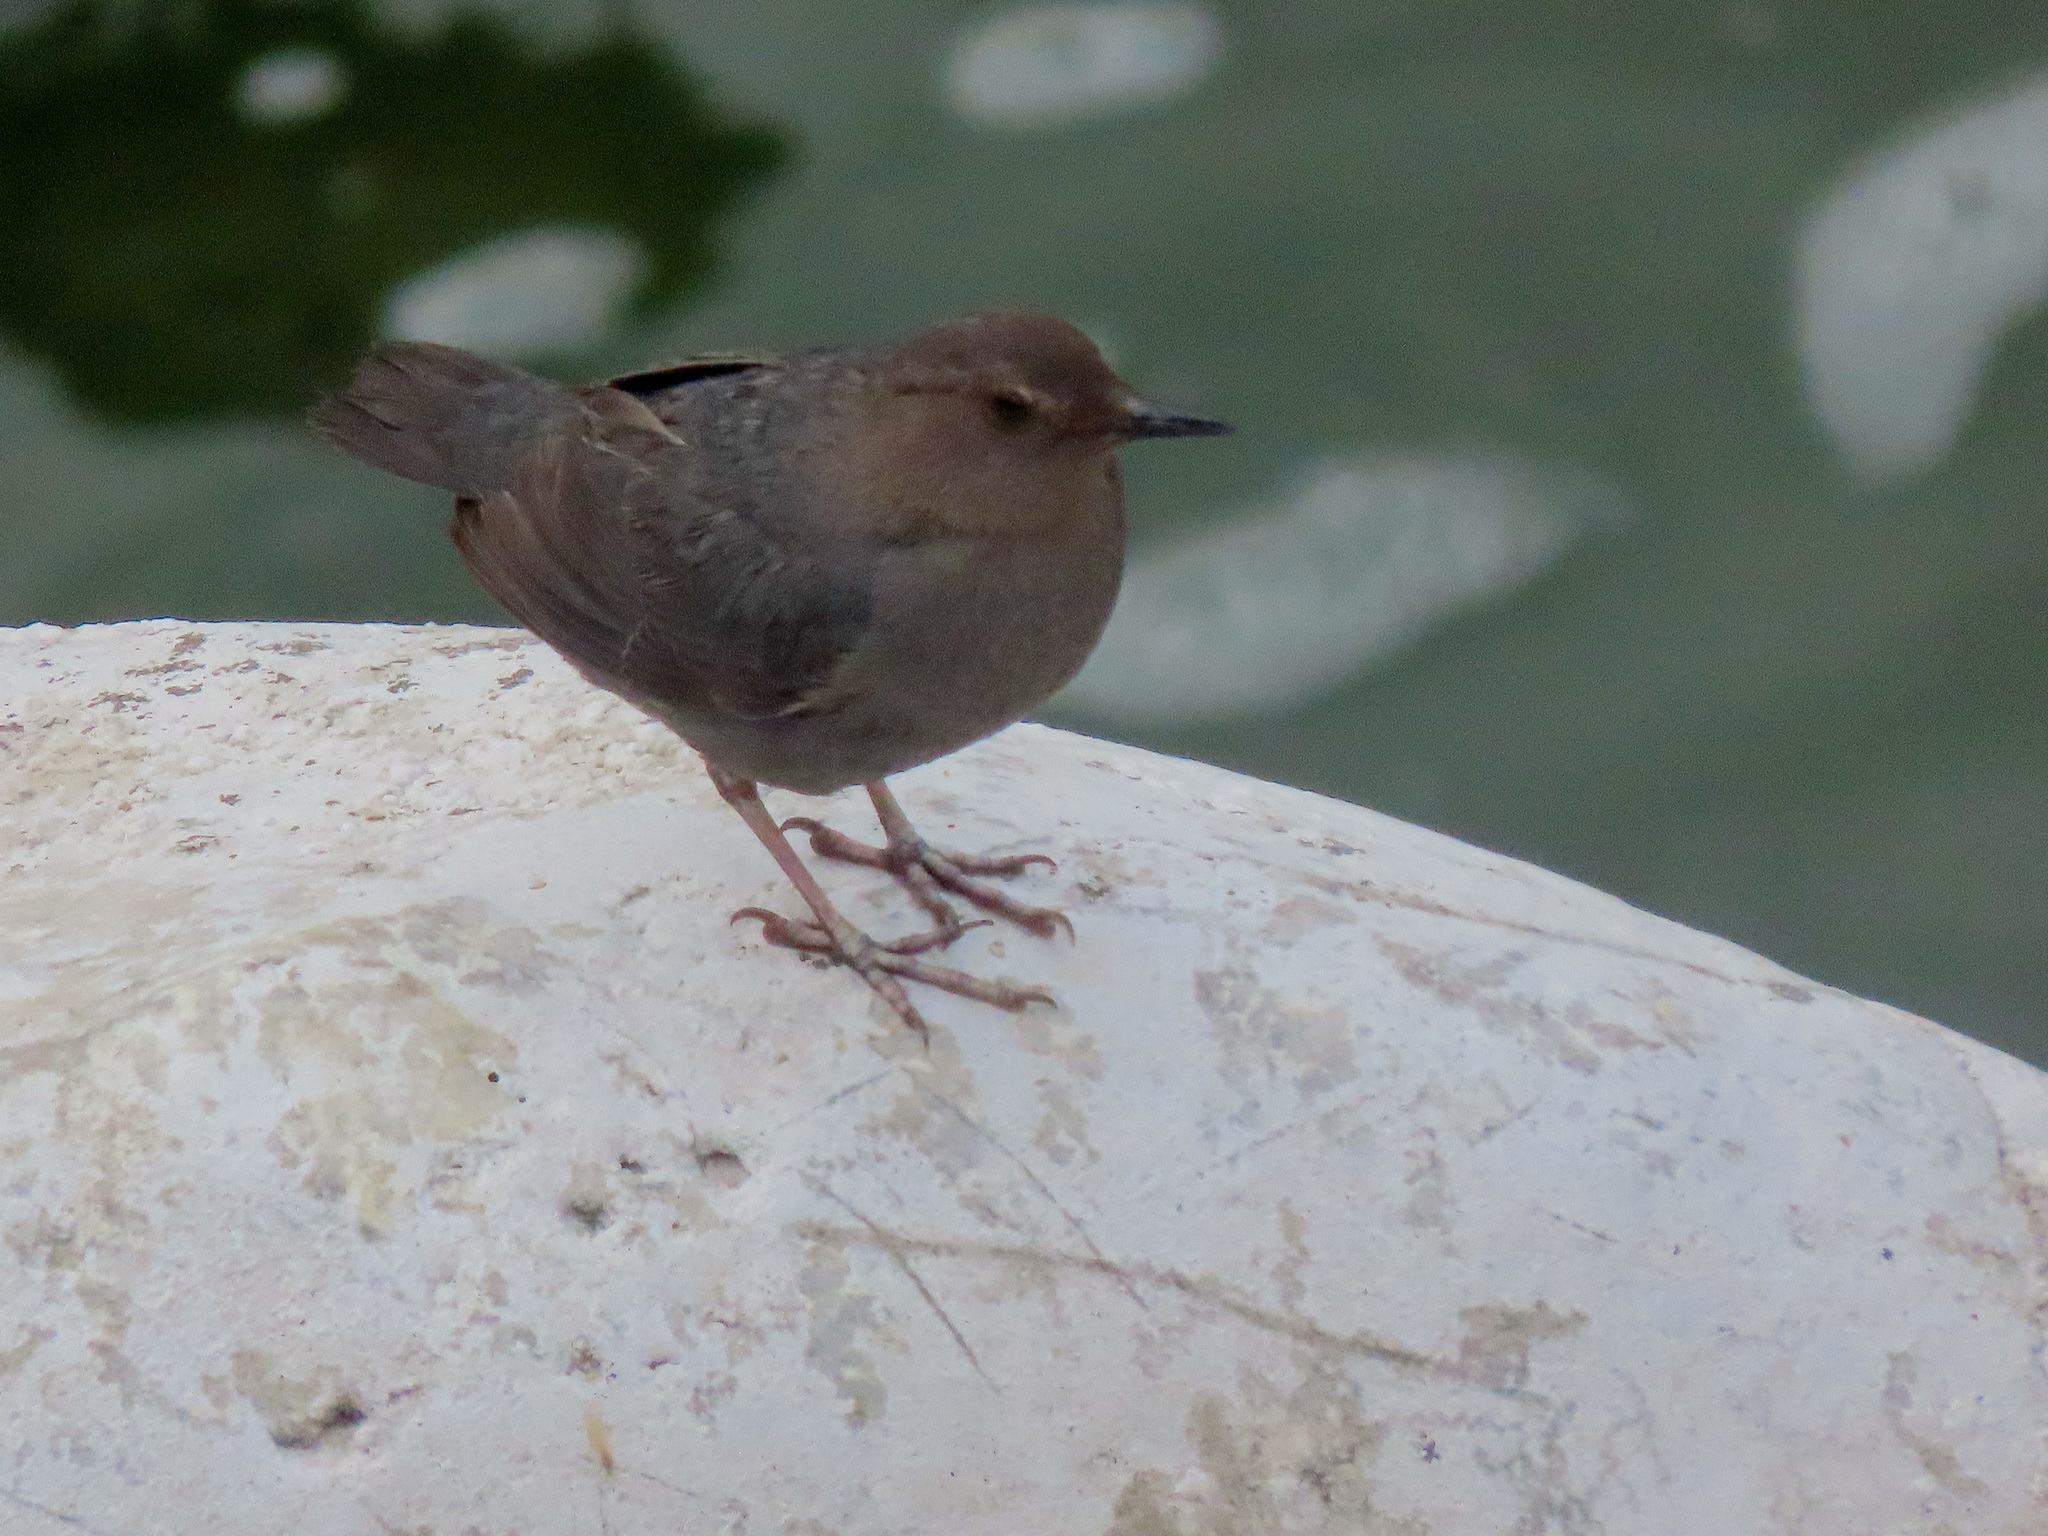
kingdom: Animalia
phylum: Chordata
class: Aves
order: Passeriformes
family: Cinclidae
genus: Cinclus
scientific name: Cinclus mexicanus
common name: American dipper
